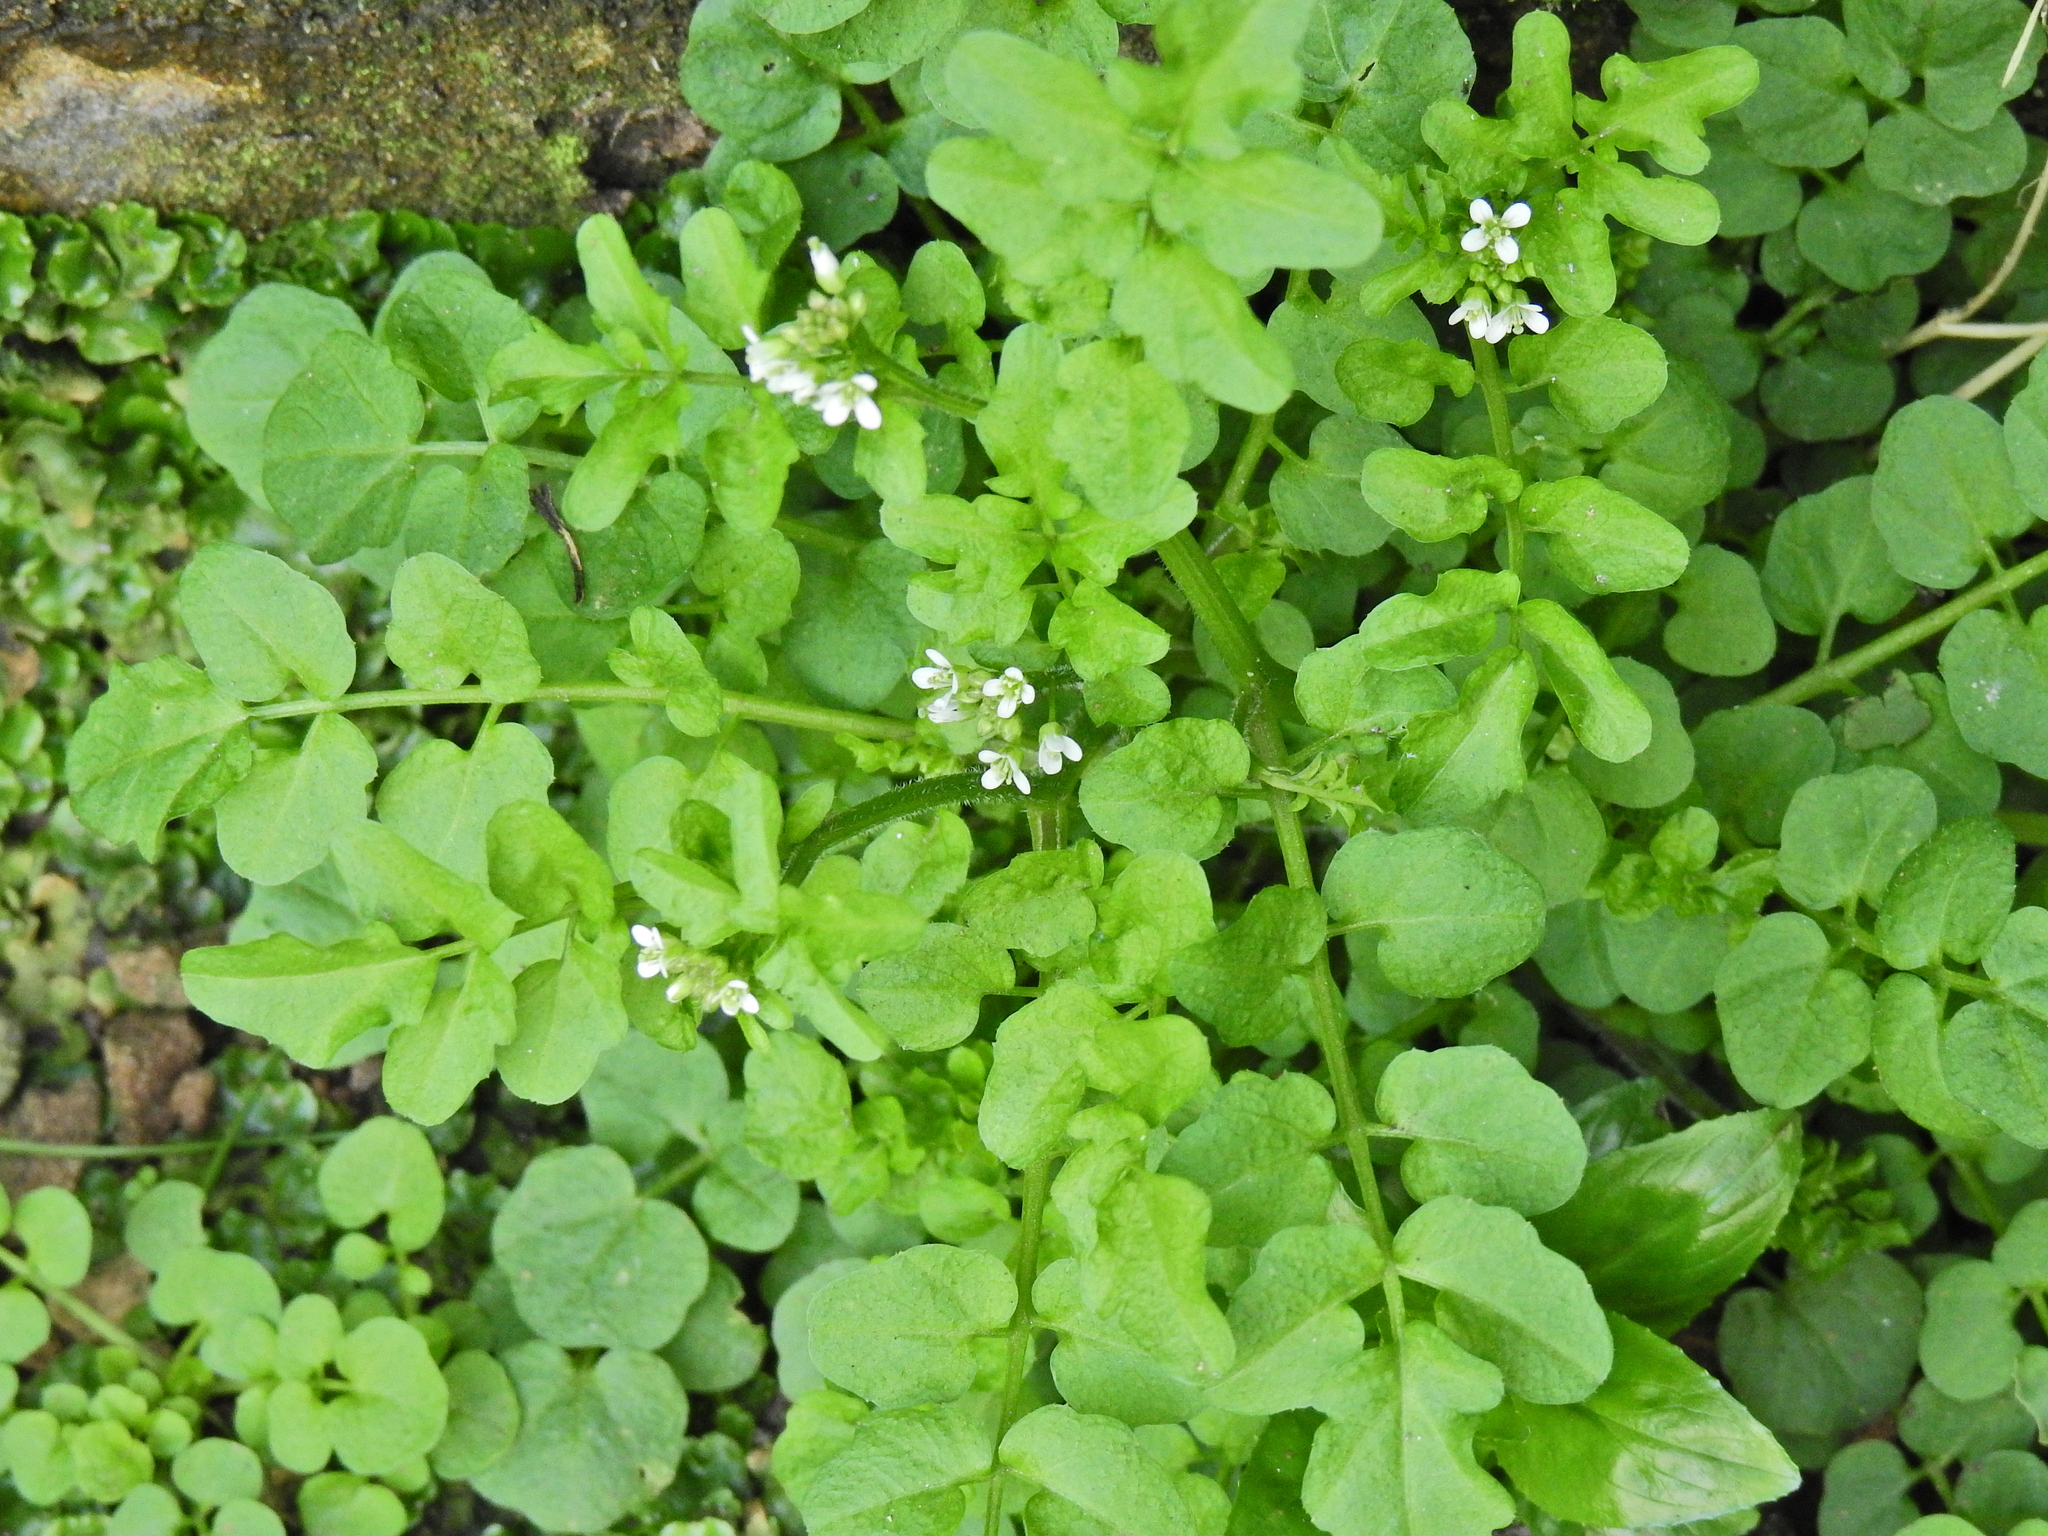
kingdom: Plantae
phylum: Tracheophyta
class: Magnoliopsida
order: Brassicales
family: Brassicaceae
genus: Cardamine
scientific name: Cardamine flexuosa
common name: Woodland bittercress
